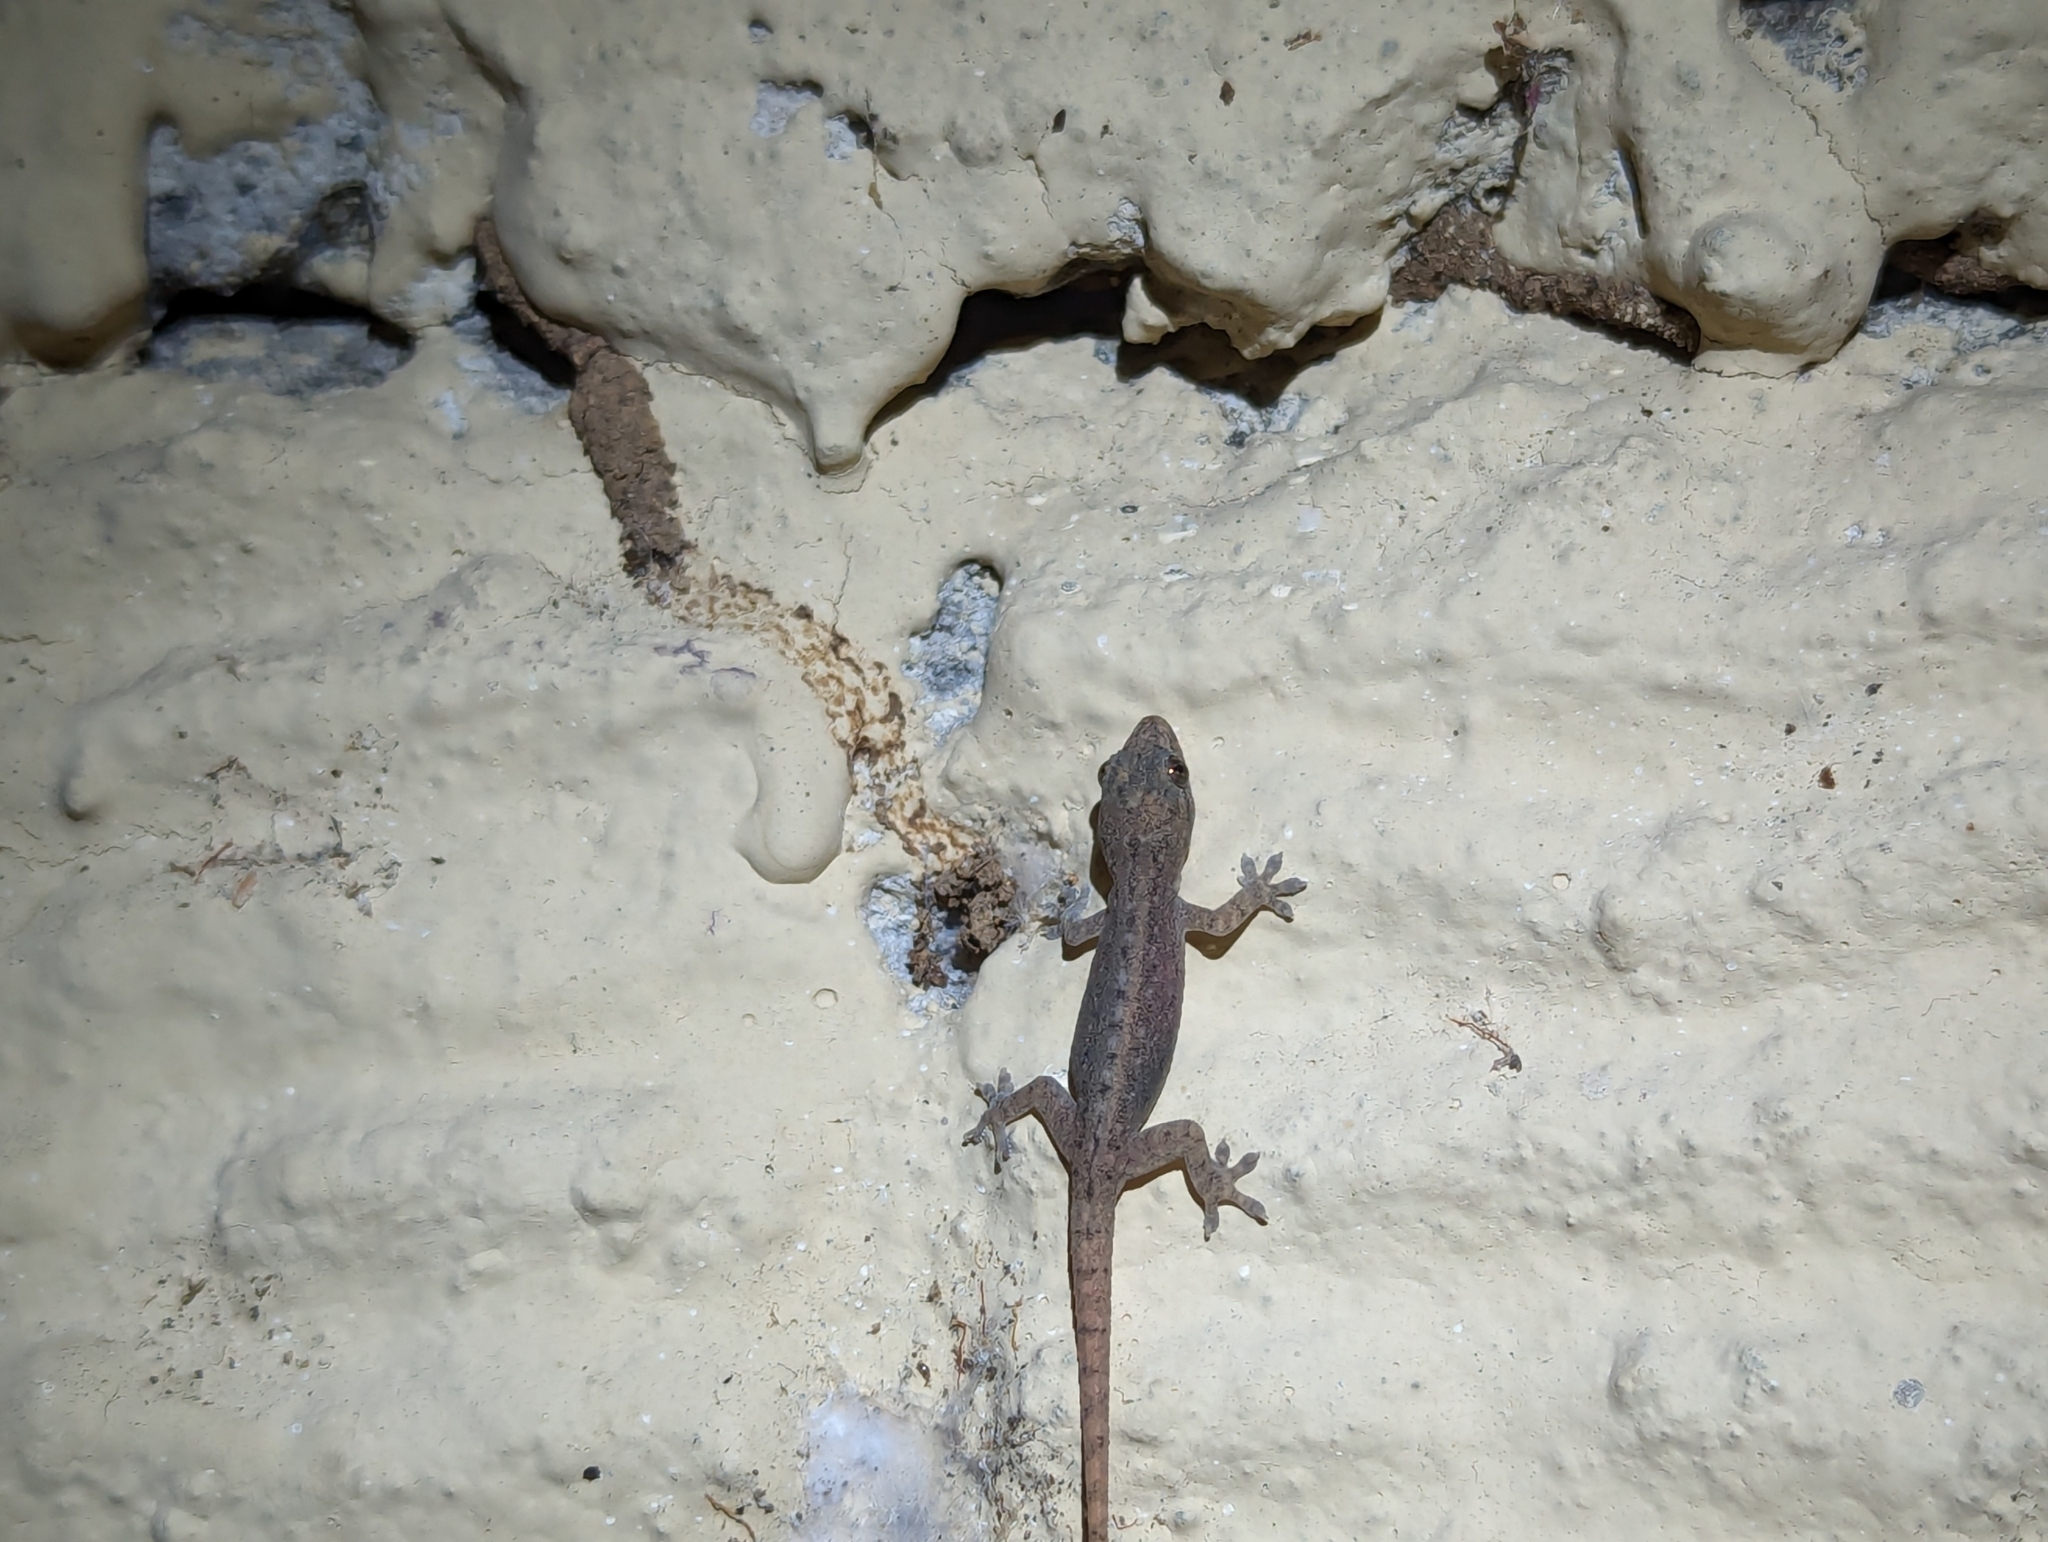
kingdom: Animalia
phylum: Chordata
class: Squamata
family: Gekkonidae
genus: Hemidactylus
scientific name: Hemidactylus frenatus
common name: Common house gecko
